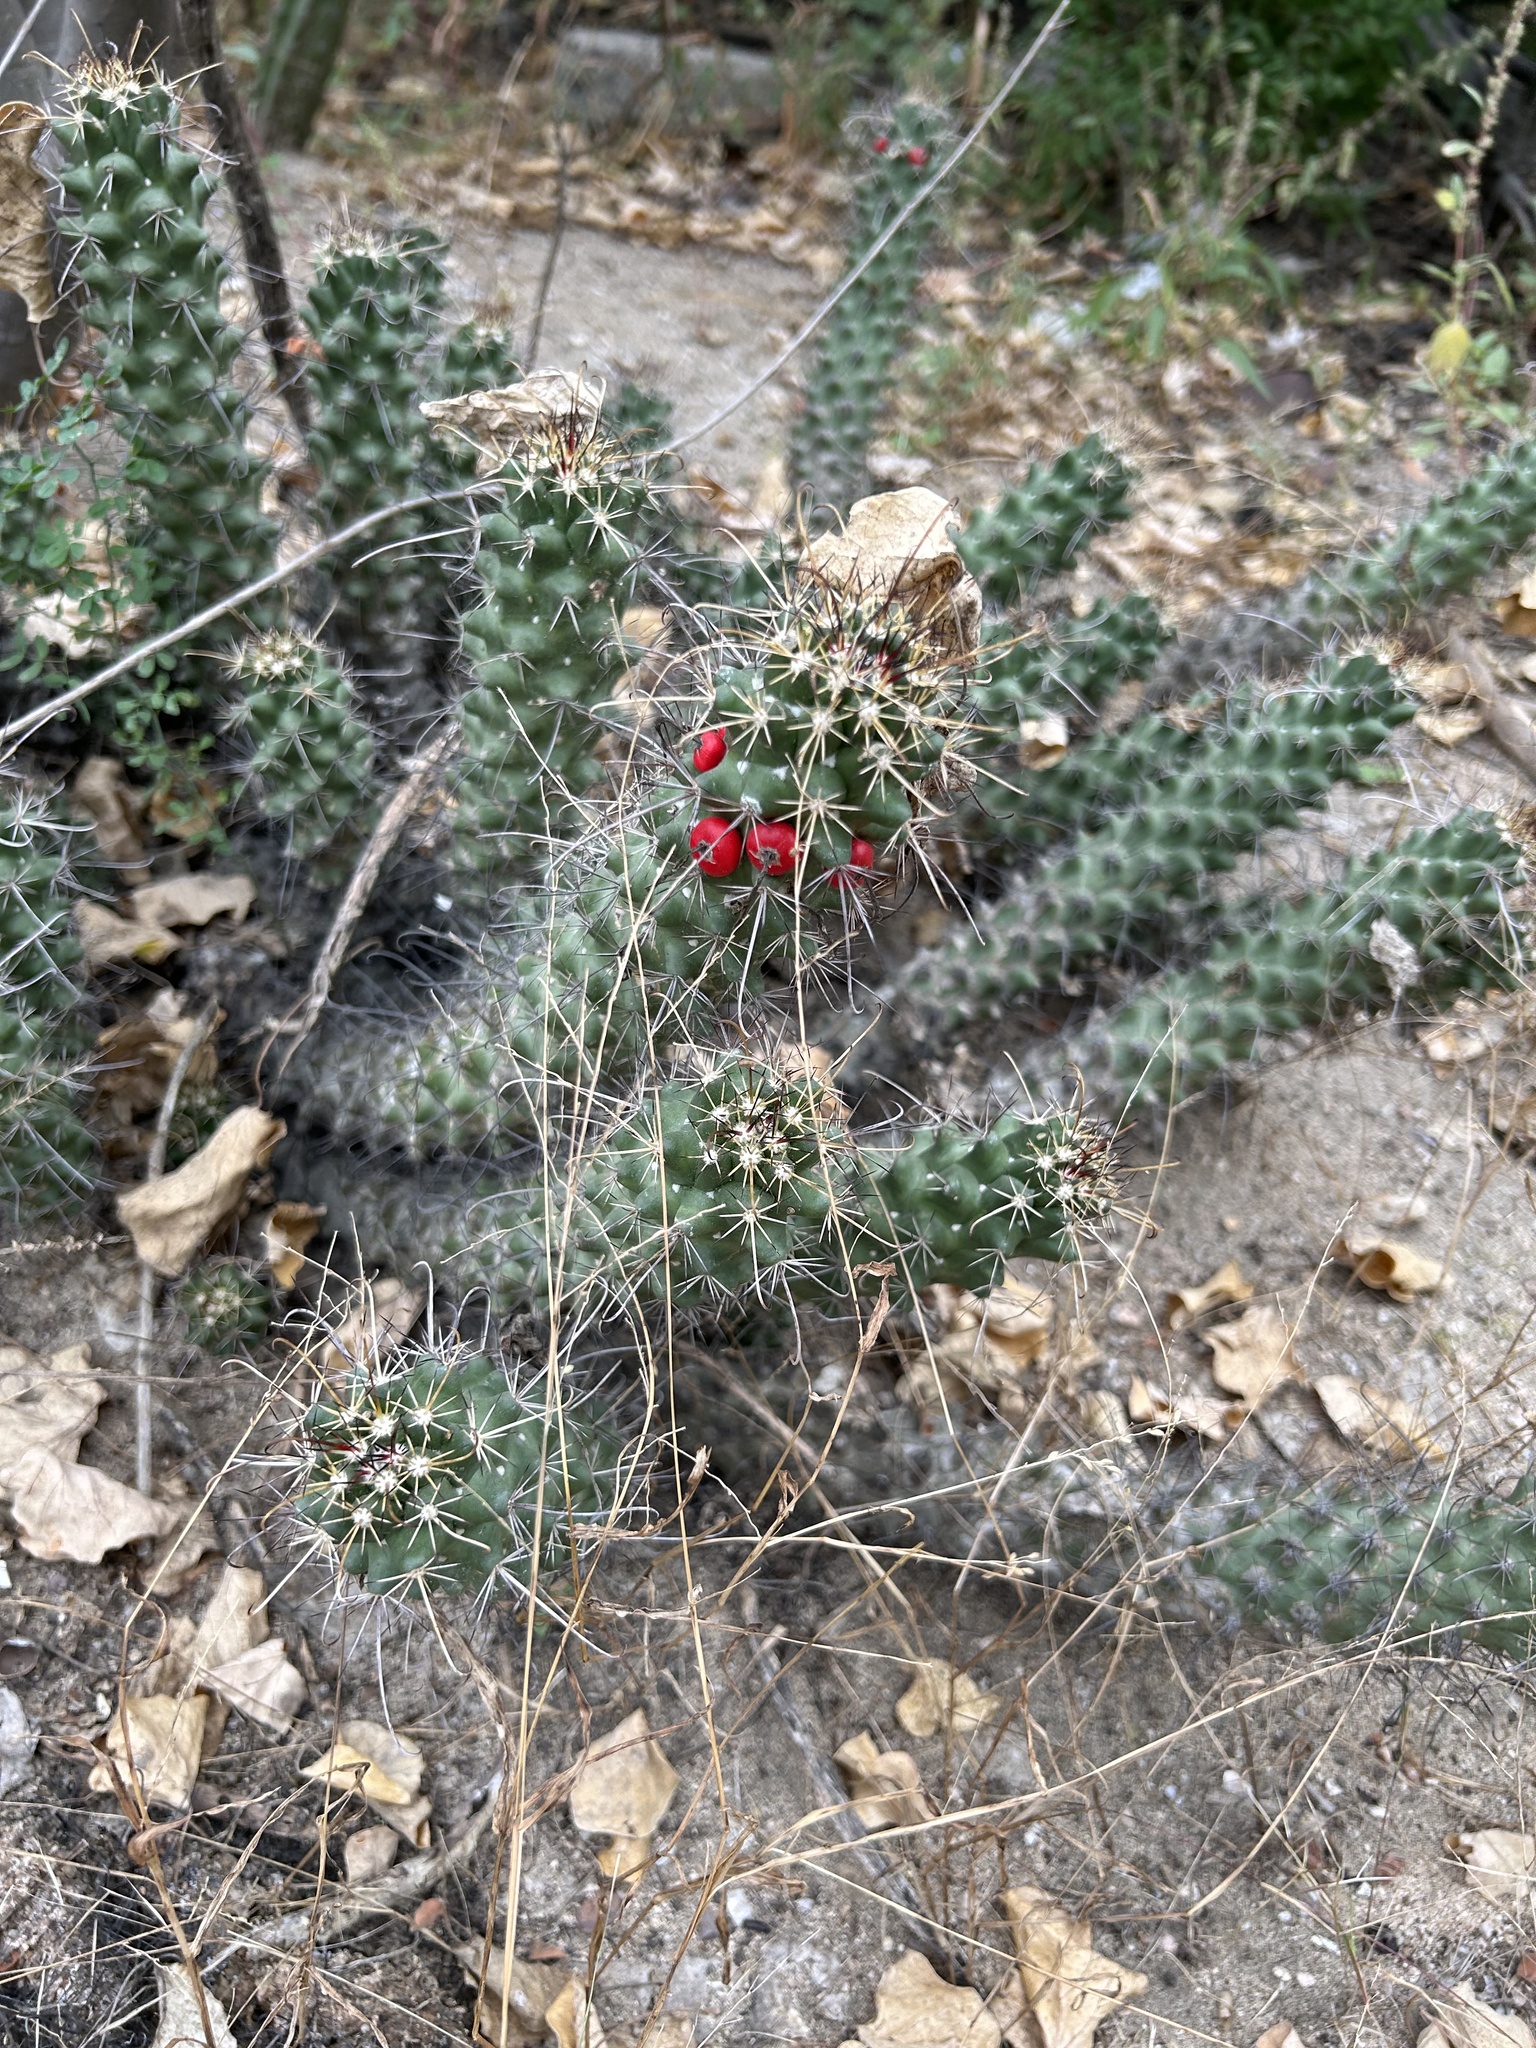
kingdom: Plantae
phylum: Tracheophyta
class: Magnoliopsida
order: Caryophyllales
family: Cactaceae
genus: Cochemiea
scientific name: Cochemiea poselgeri
